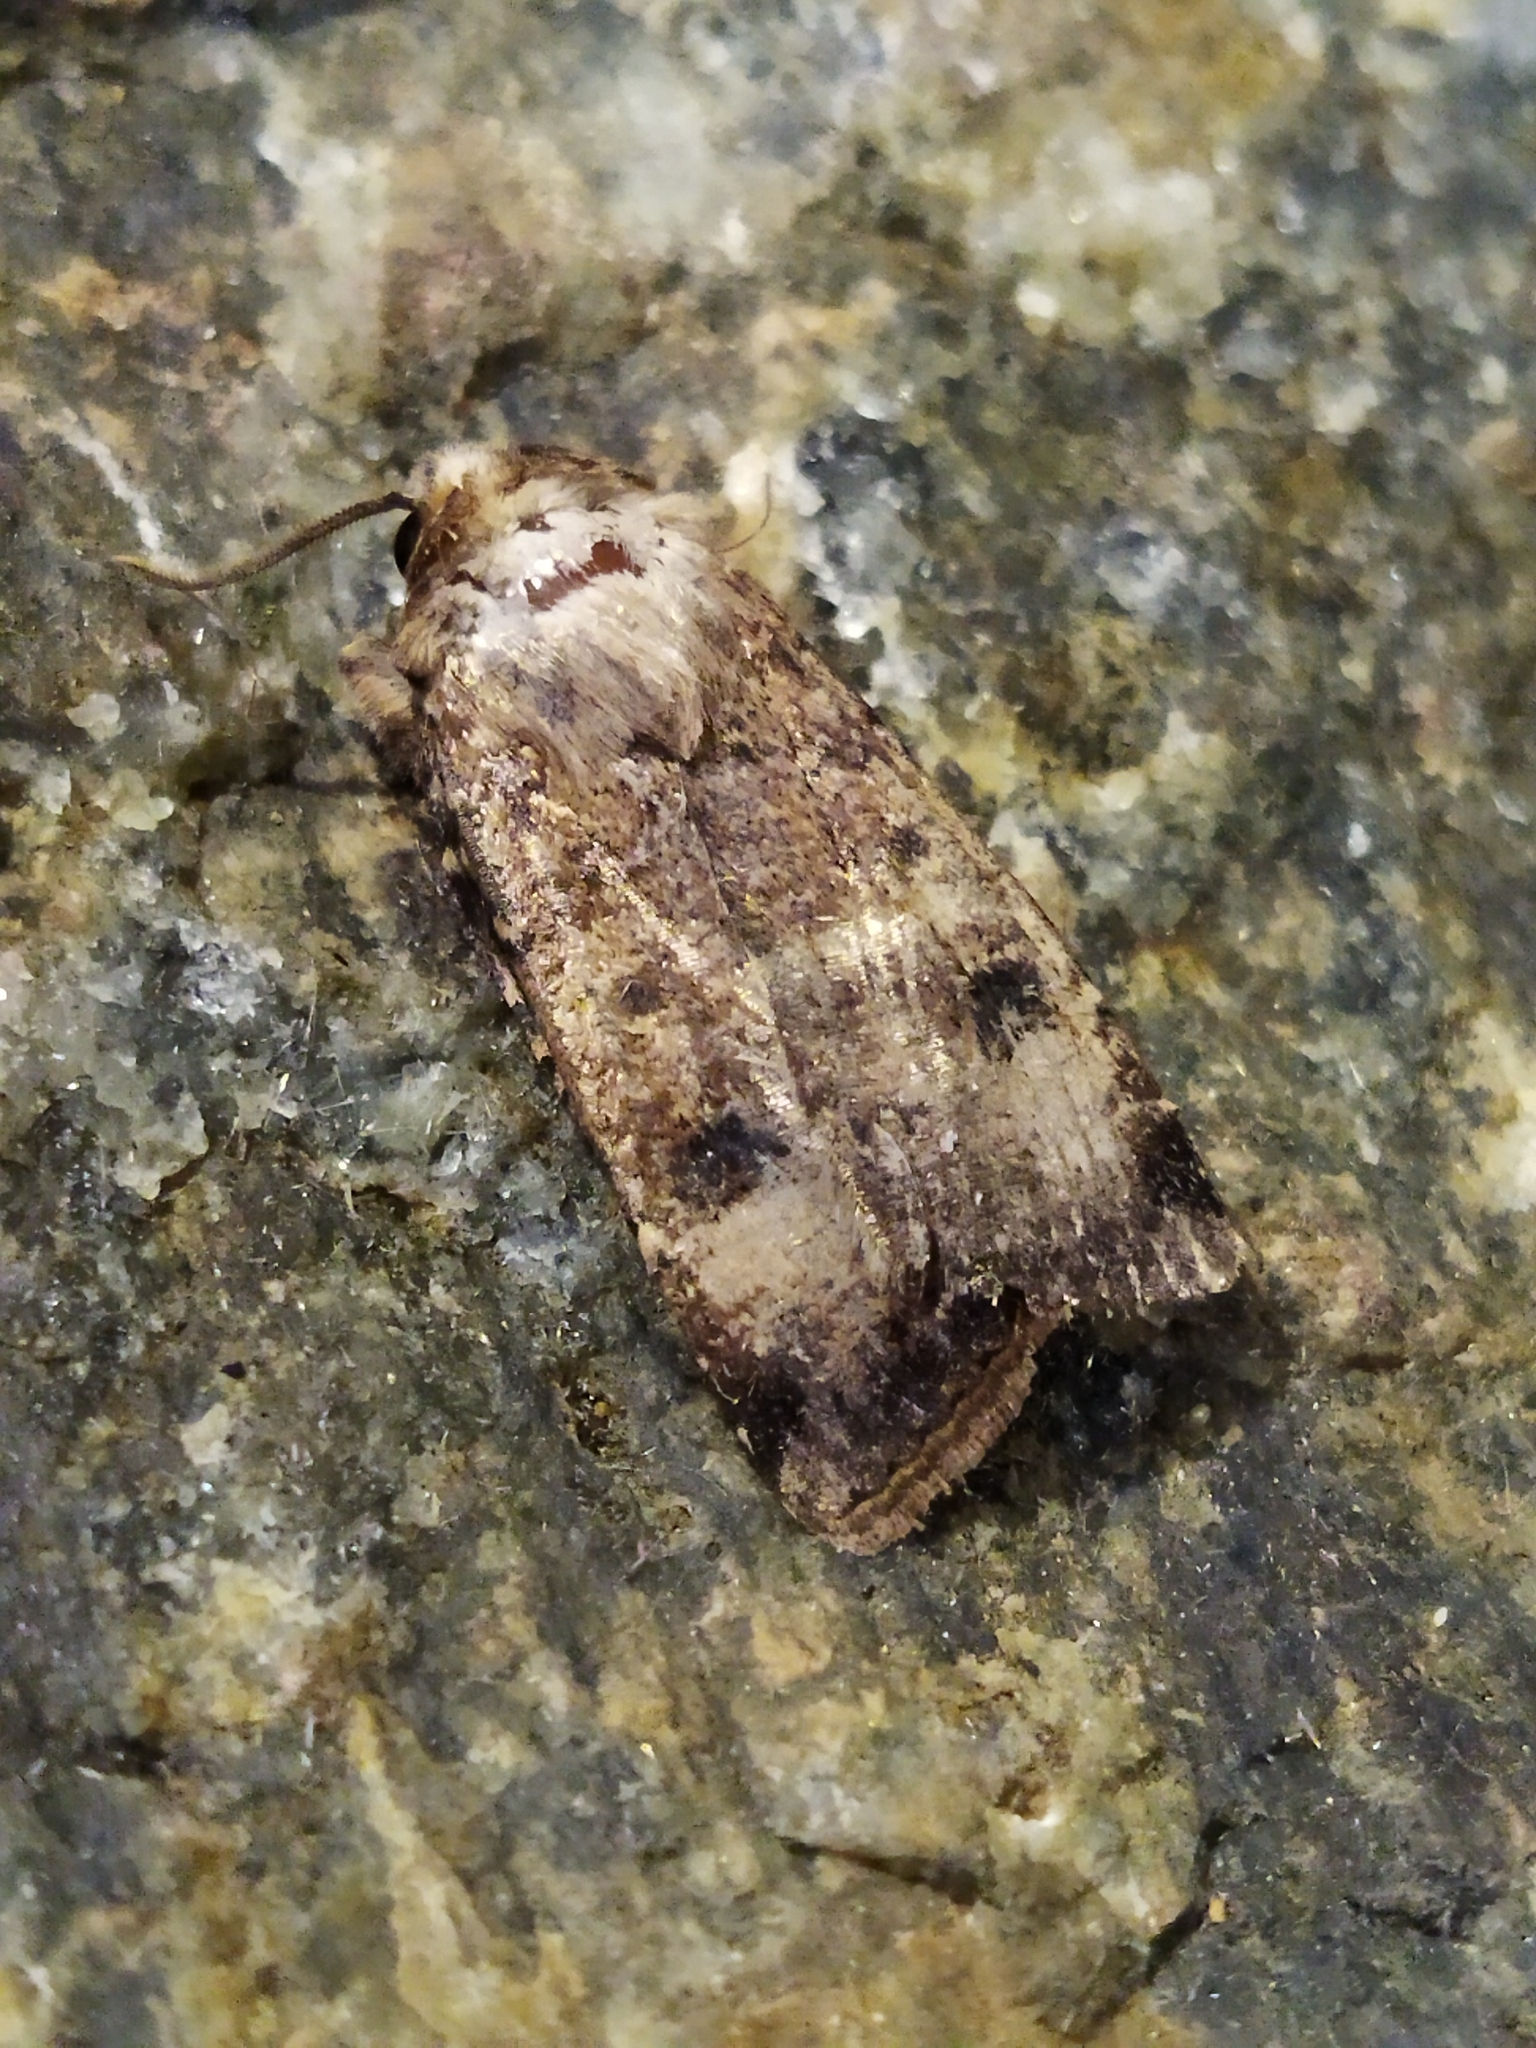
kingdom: Animalia
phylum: Arthropoda
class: Insecta
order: Lepidoptera
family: Noctuidae
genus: Agrotis
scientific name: Agrotis trux
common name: Crescent dart
